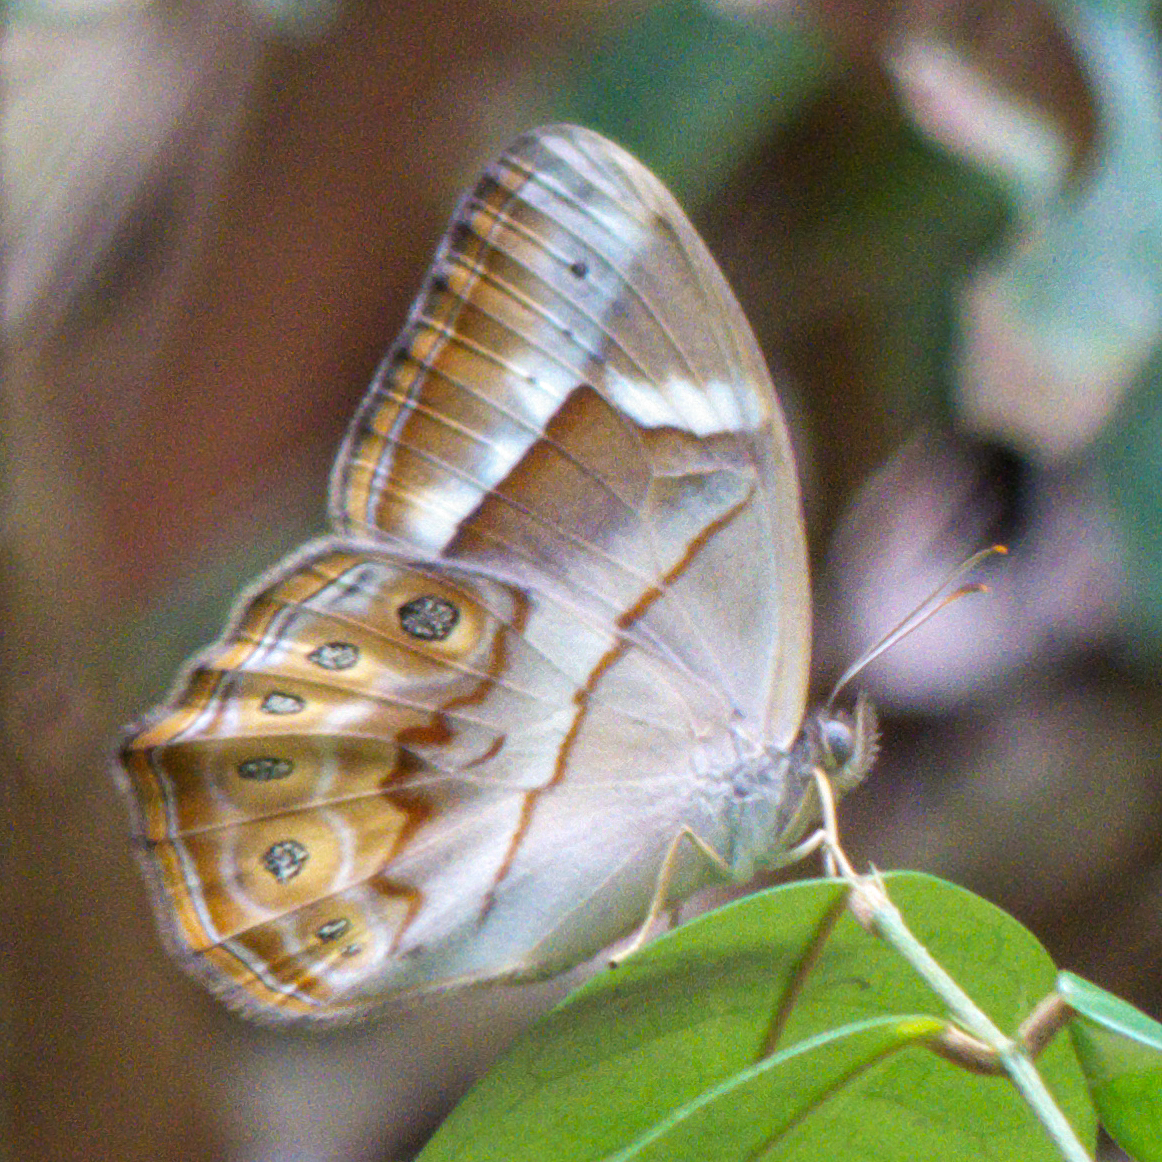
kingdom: Animalia
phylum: Arthropoda
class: Insecta
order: Lepidoptera
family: Nymphalidae
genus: Lethe
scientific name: Lethe minerva
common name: Banded red forester
